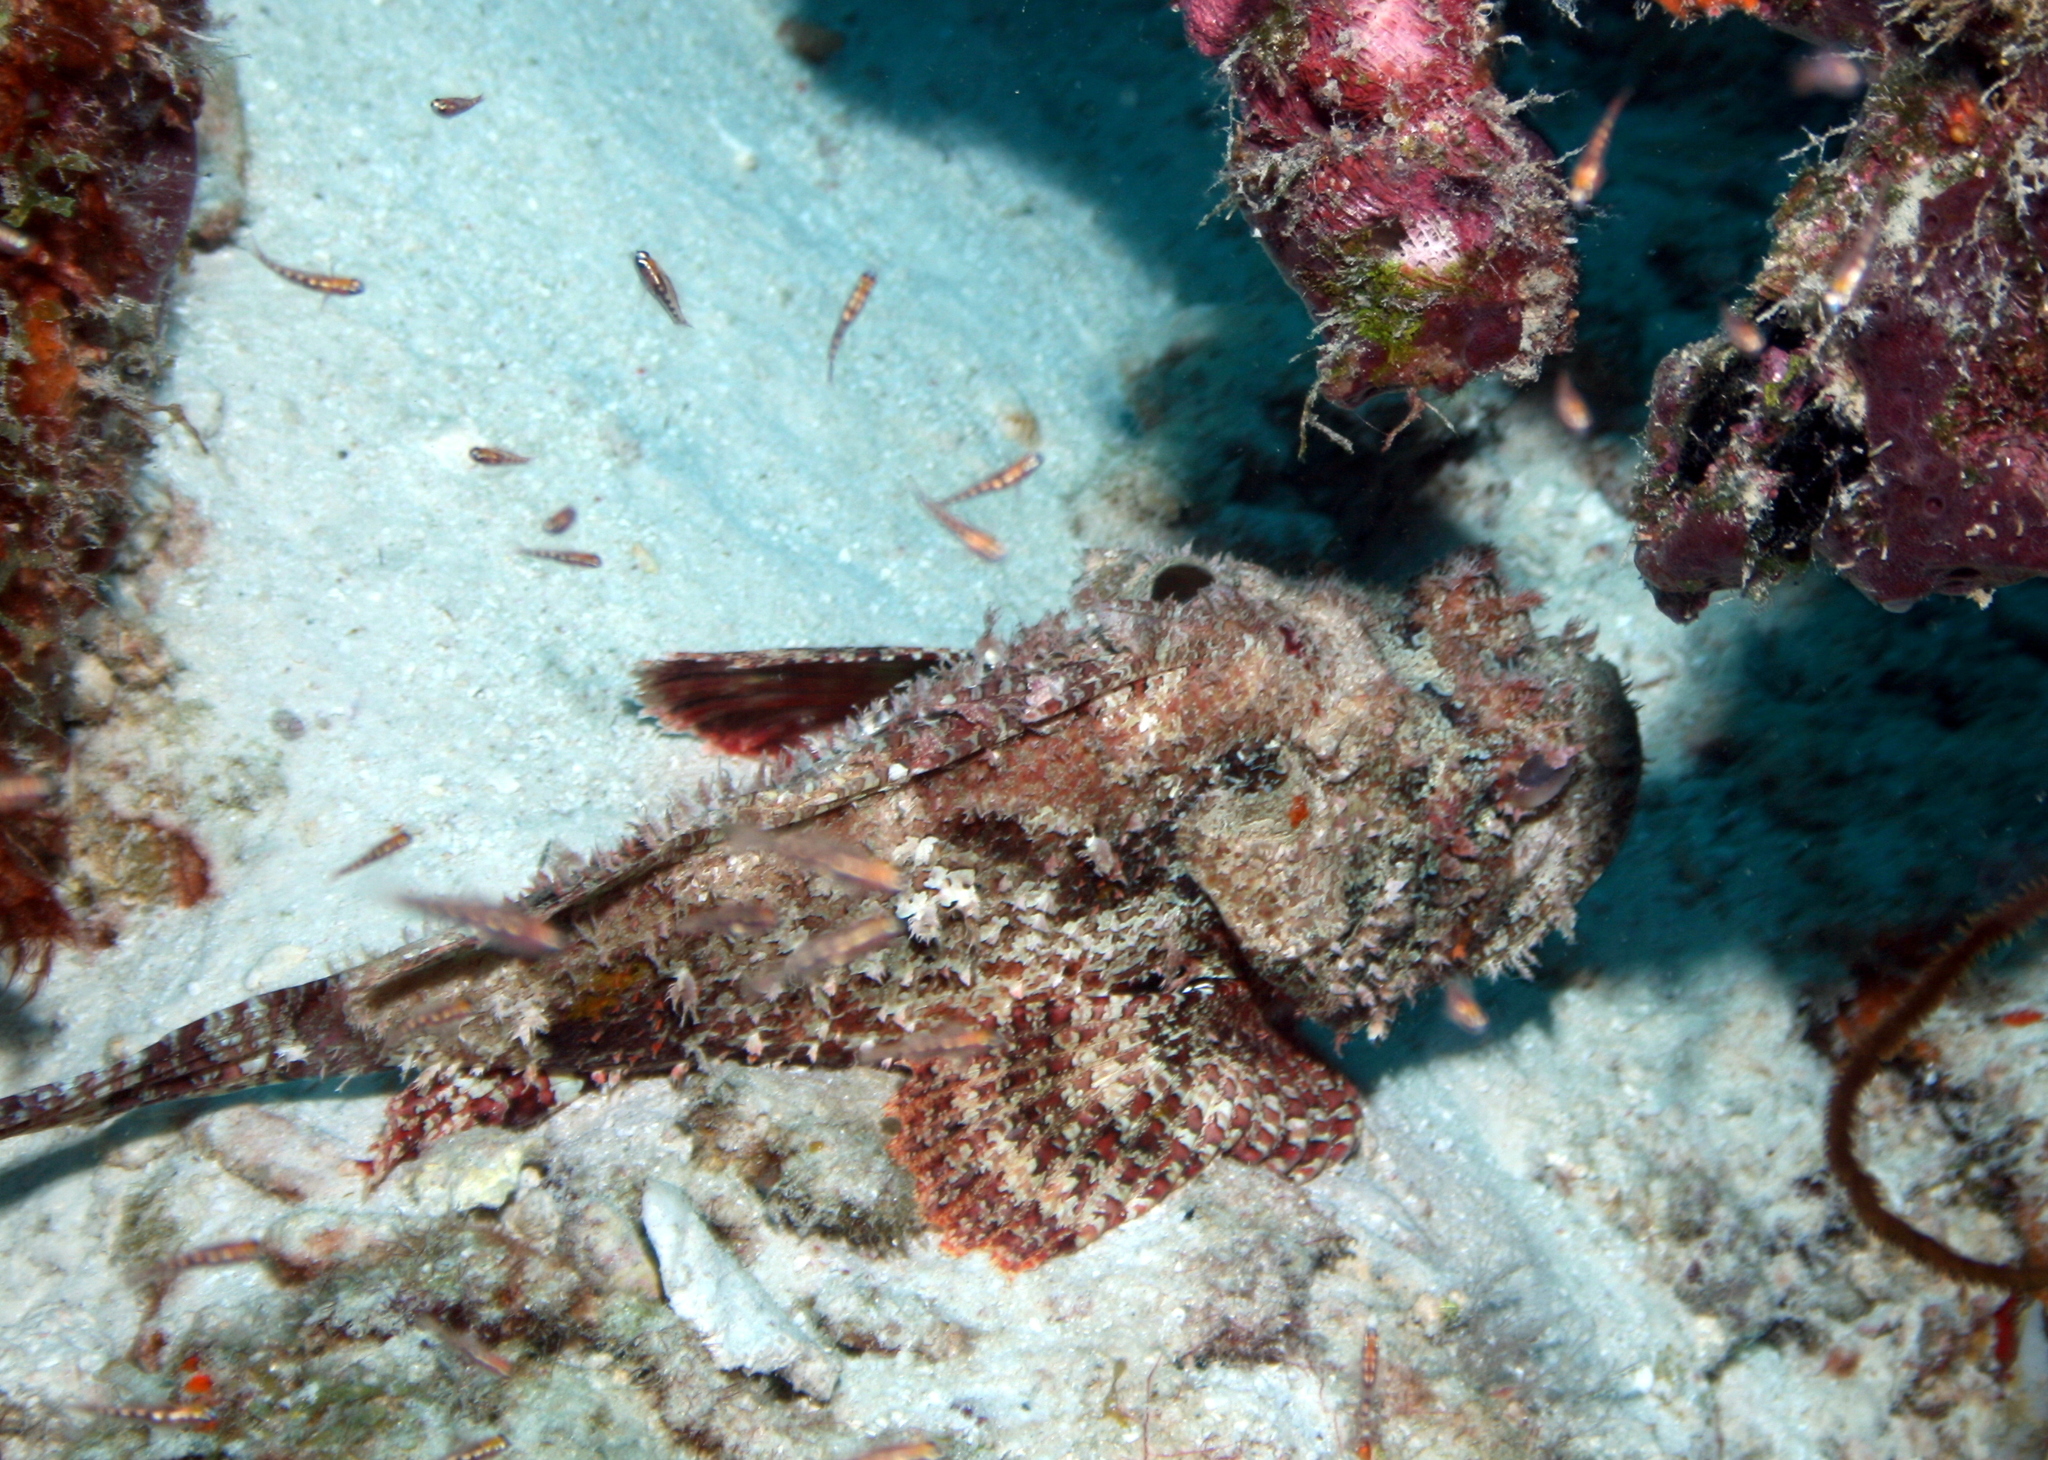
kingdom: Animalia
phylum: Chordata
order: Scorpaeniformes
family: Scorpaenidae
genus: Scorpaena
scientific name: Scorpaena plumieri
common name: Spotted scorpionfish
